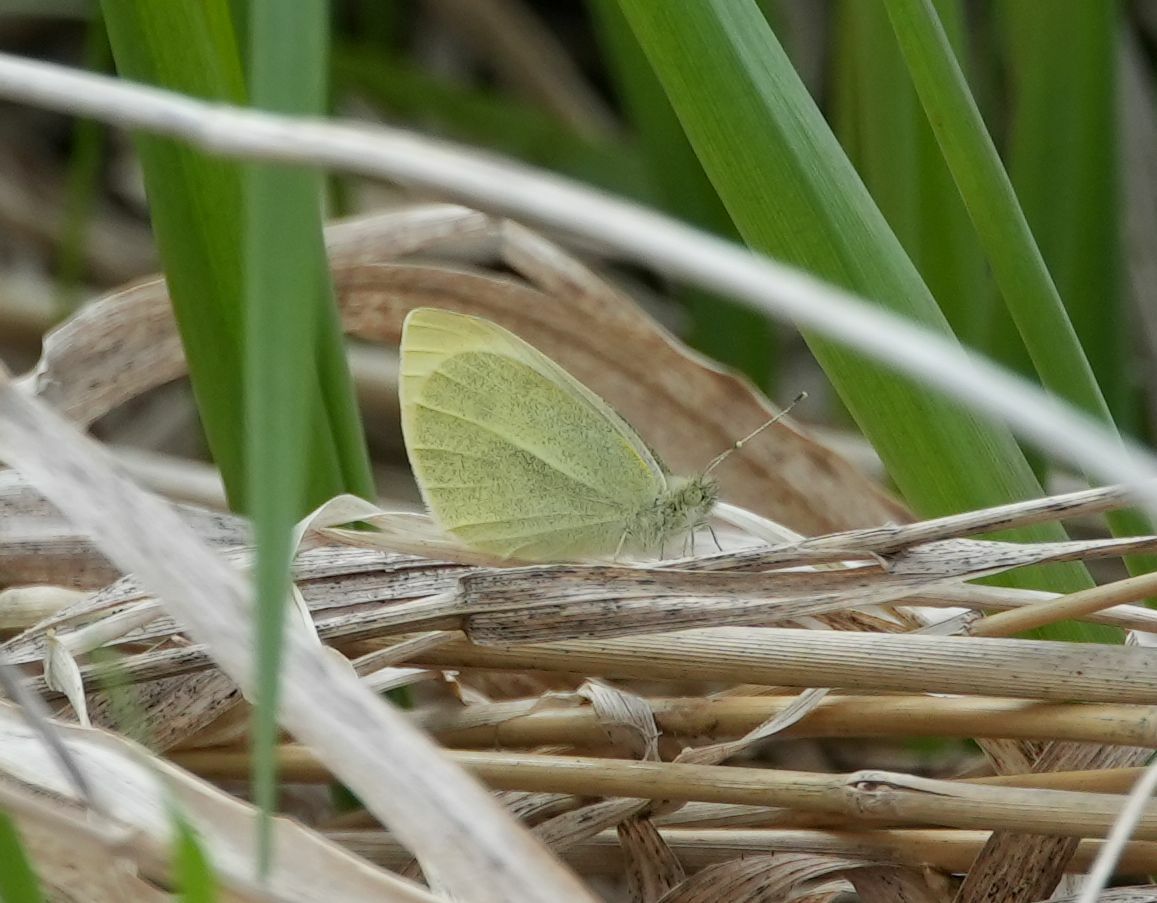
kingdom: Animalia
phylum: Arthropoda
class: Insecta
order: Lepidoptera
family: Pieridae
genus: Pieris
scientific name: Pieris rapae
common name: Small white
